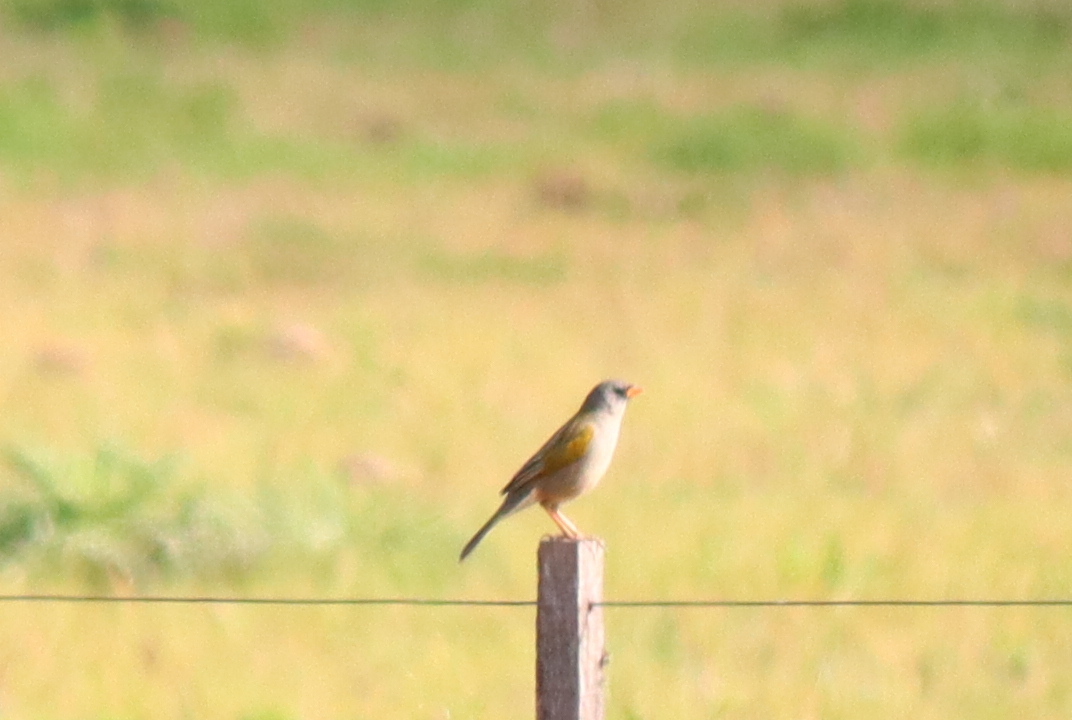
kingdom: Animalia
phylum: Chordata
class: Aves
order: Passeriformes
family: Thraupidae
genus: Embernagra
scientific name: Embernagra platensis
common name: Pampa finch
